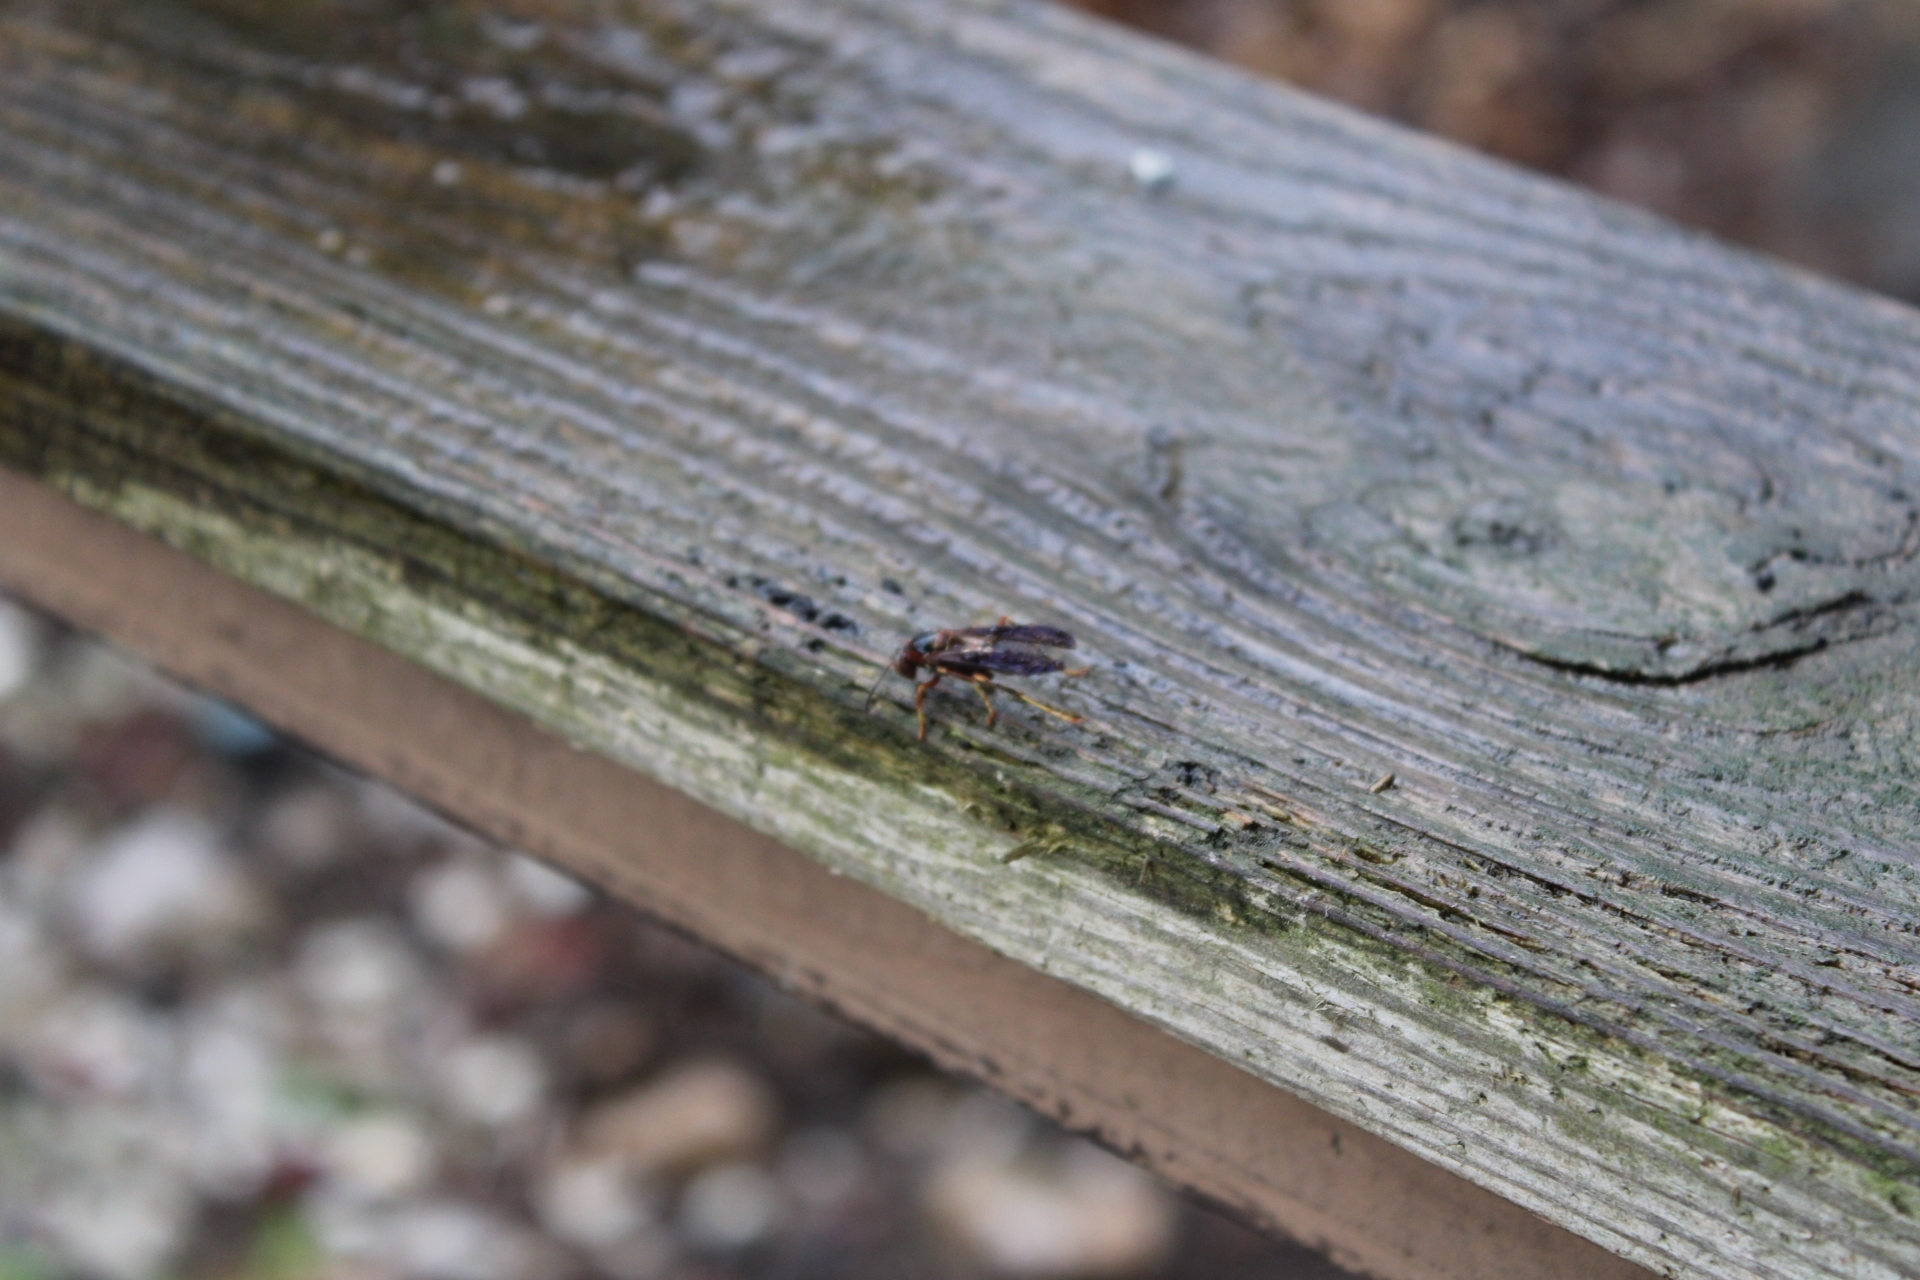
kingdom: Animalia
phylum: Arthropoda
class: Insecta
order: Hymenoptera
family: Eumenidae
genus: Polistes
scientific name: Polistes fuscatus
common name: Dark paper wasp
